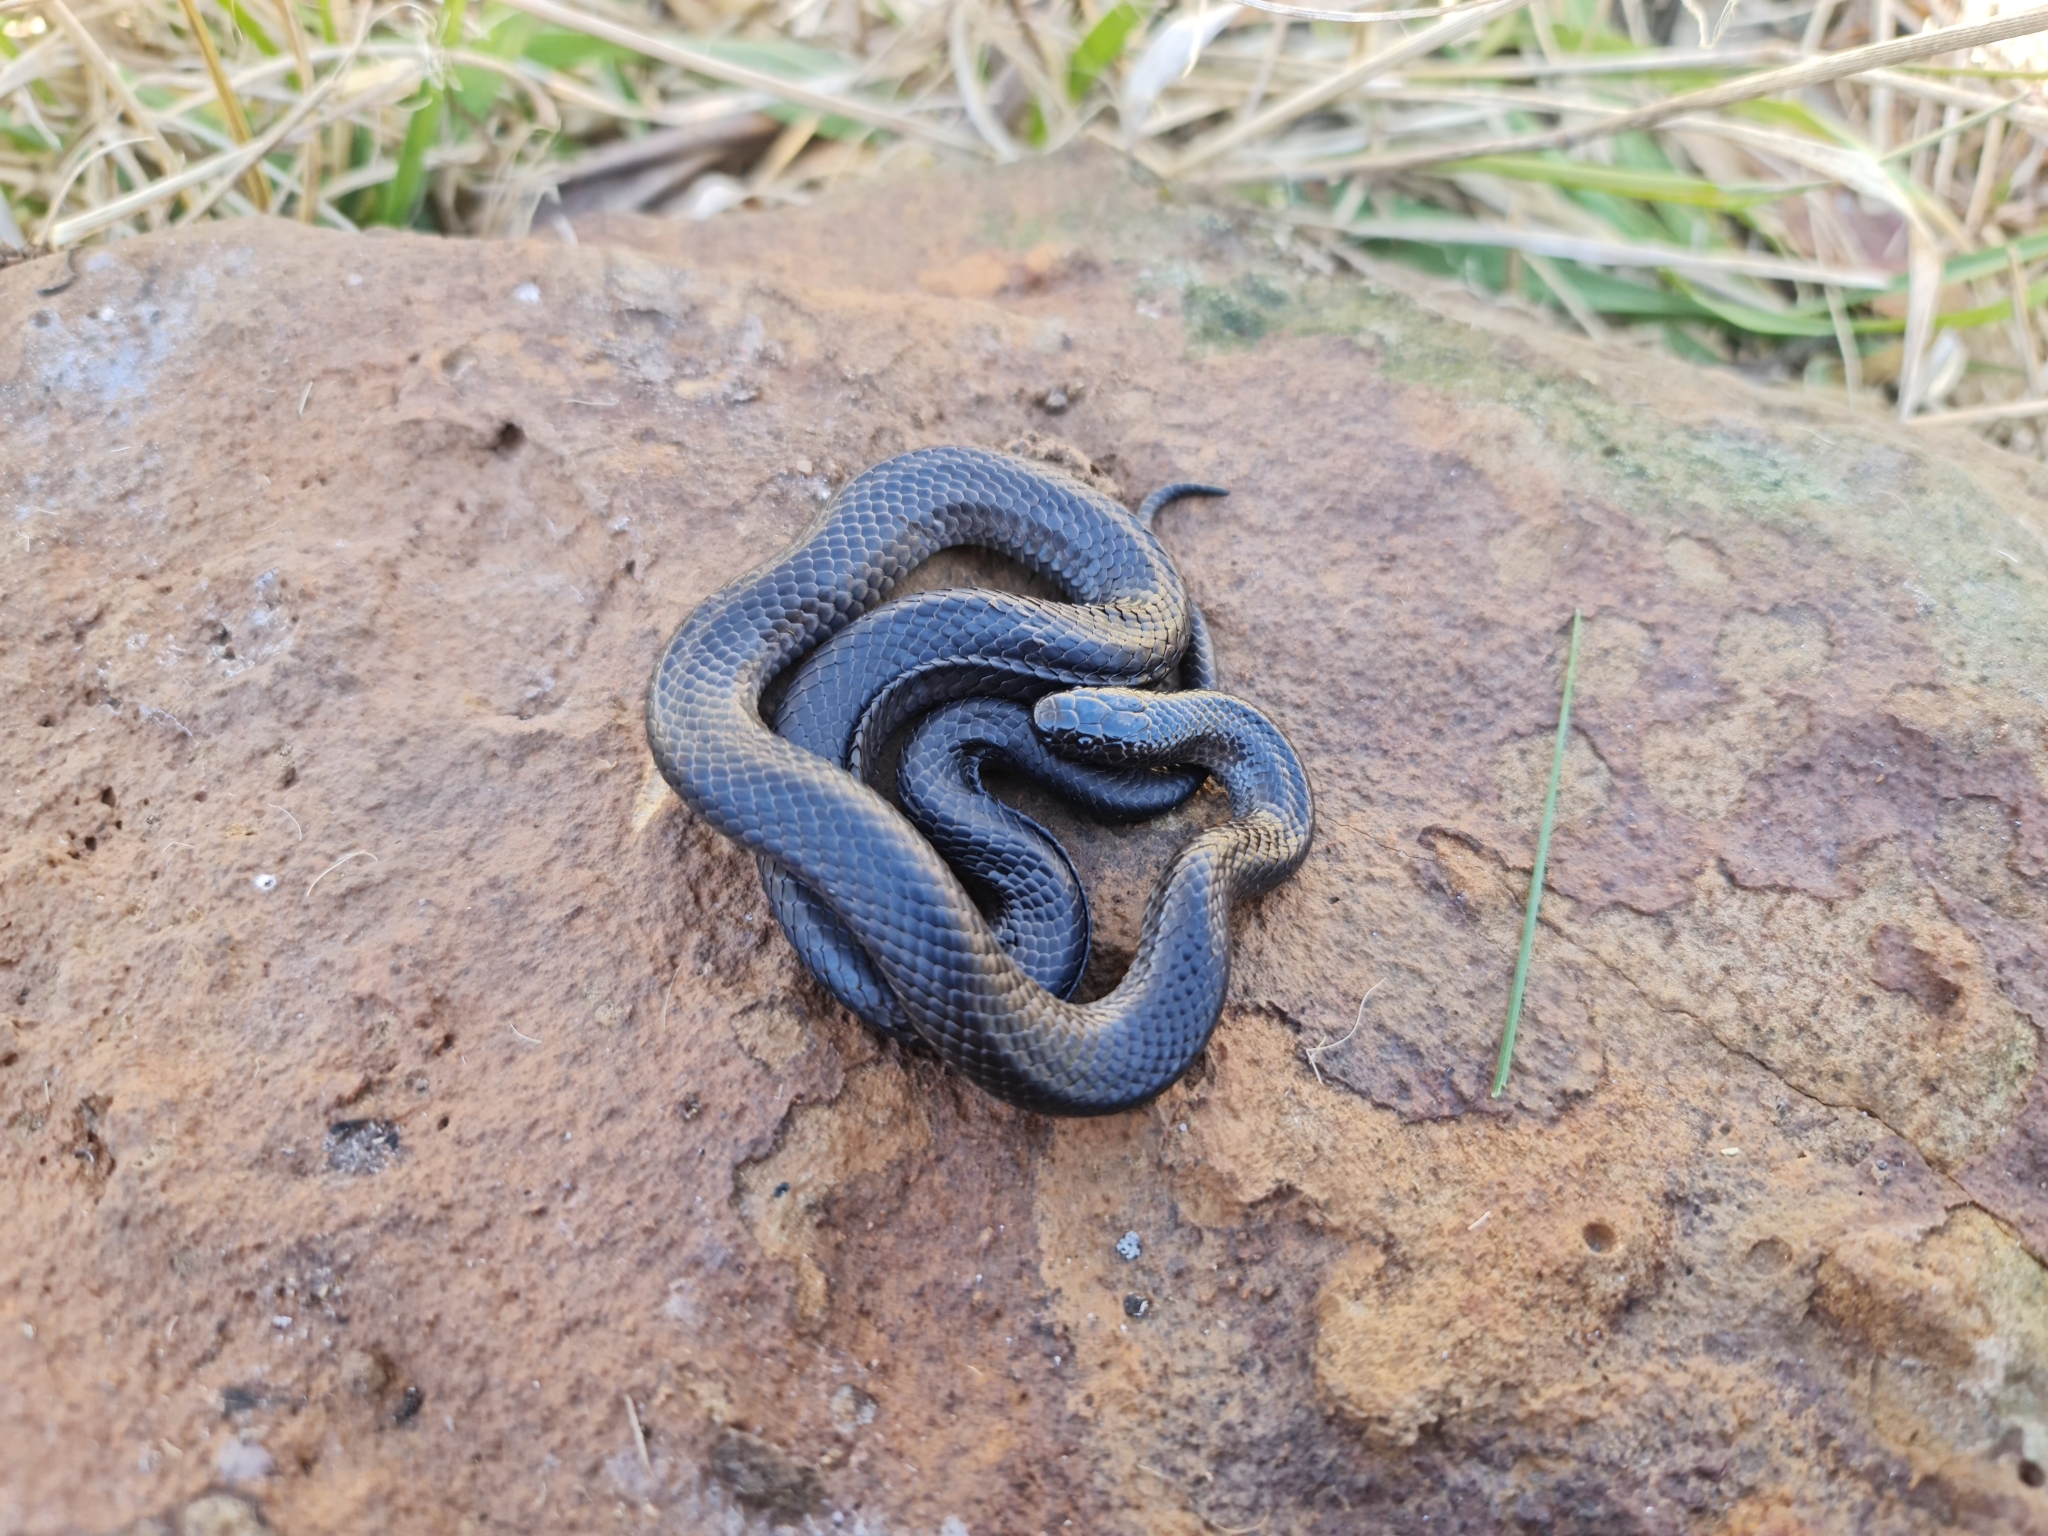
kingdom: Animalia
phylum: Chordata
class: Squamata
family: Elapidae
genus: Cryptophis
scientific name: Cryptophis nigrescens
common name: Eastern small-eyed snake
